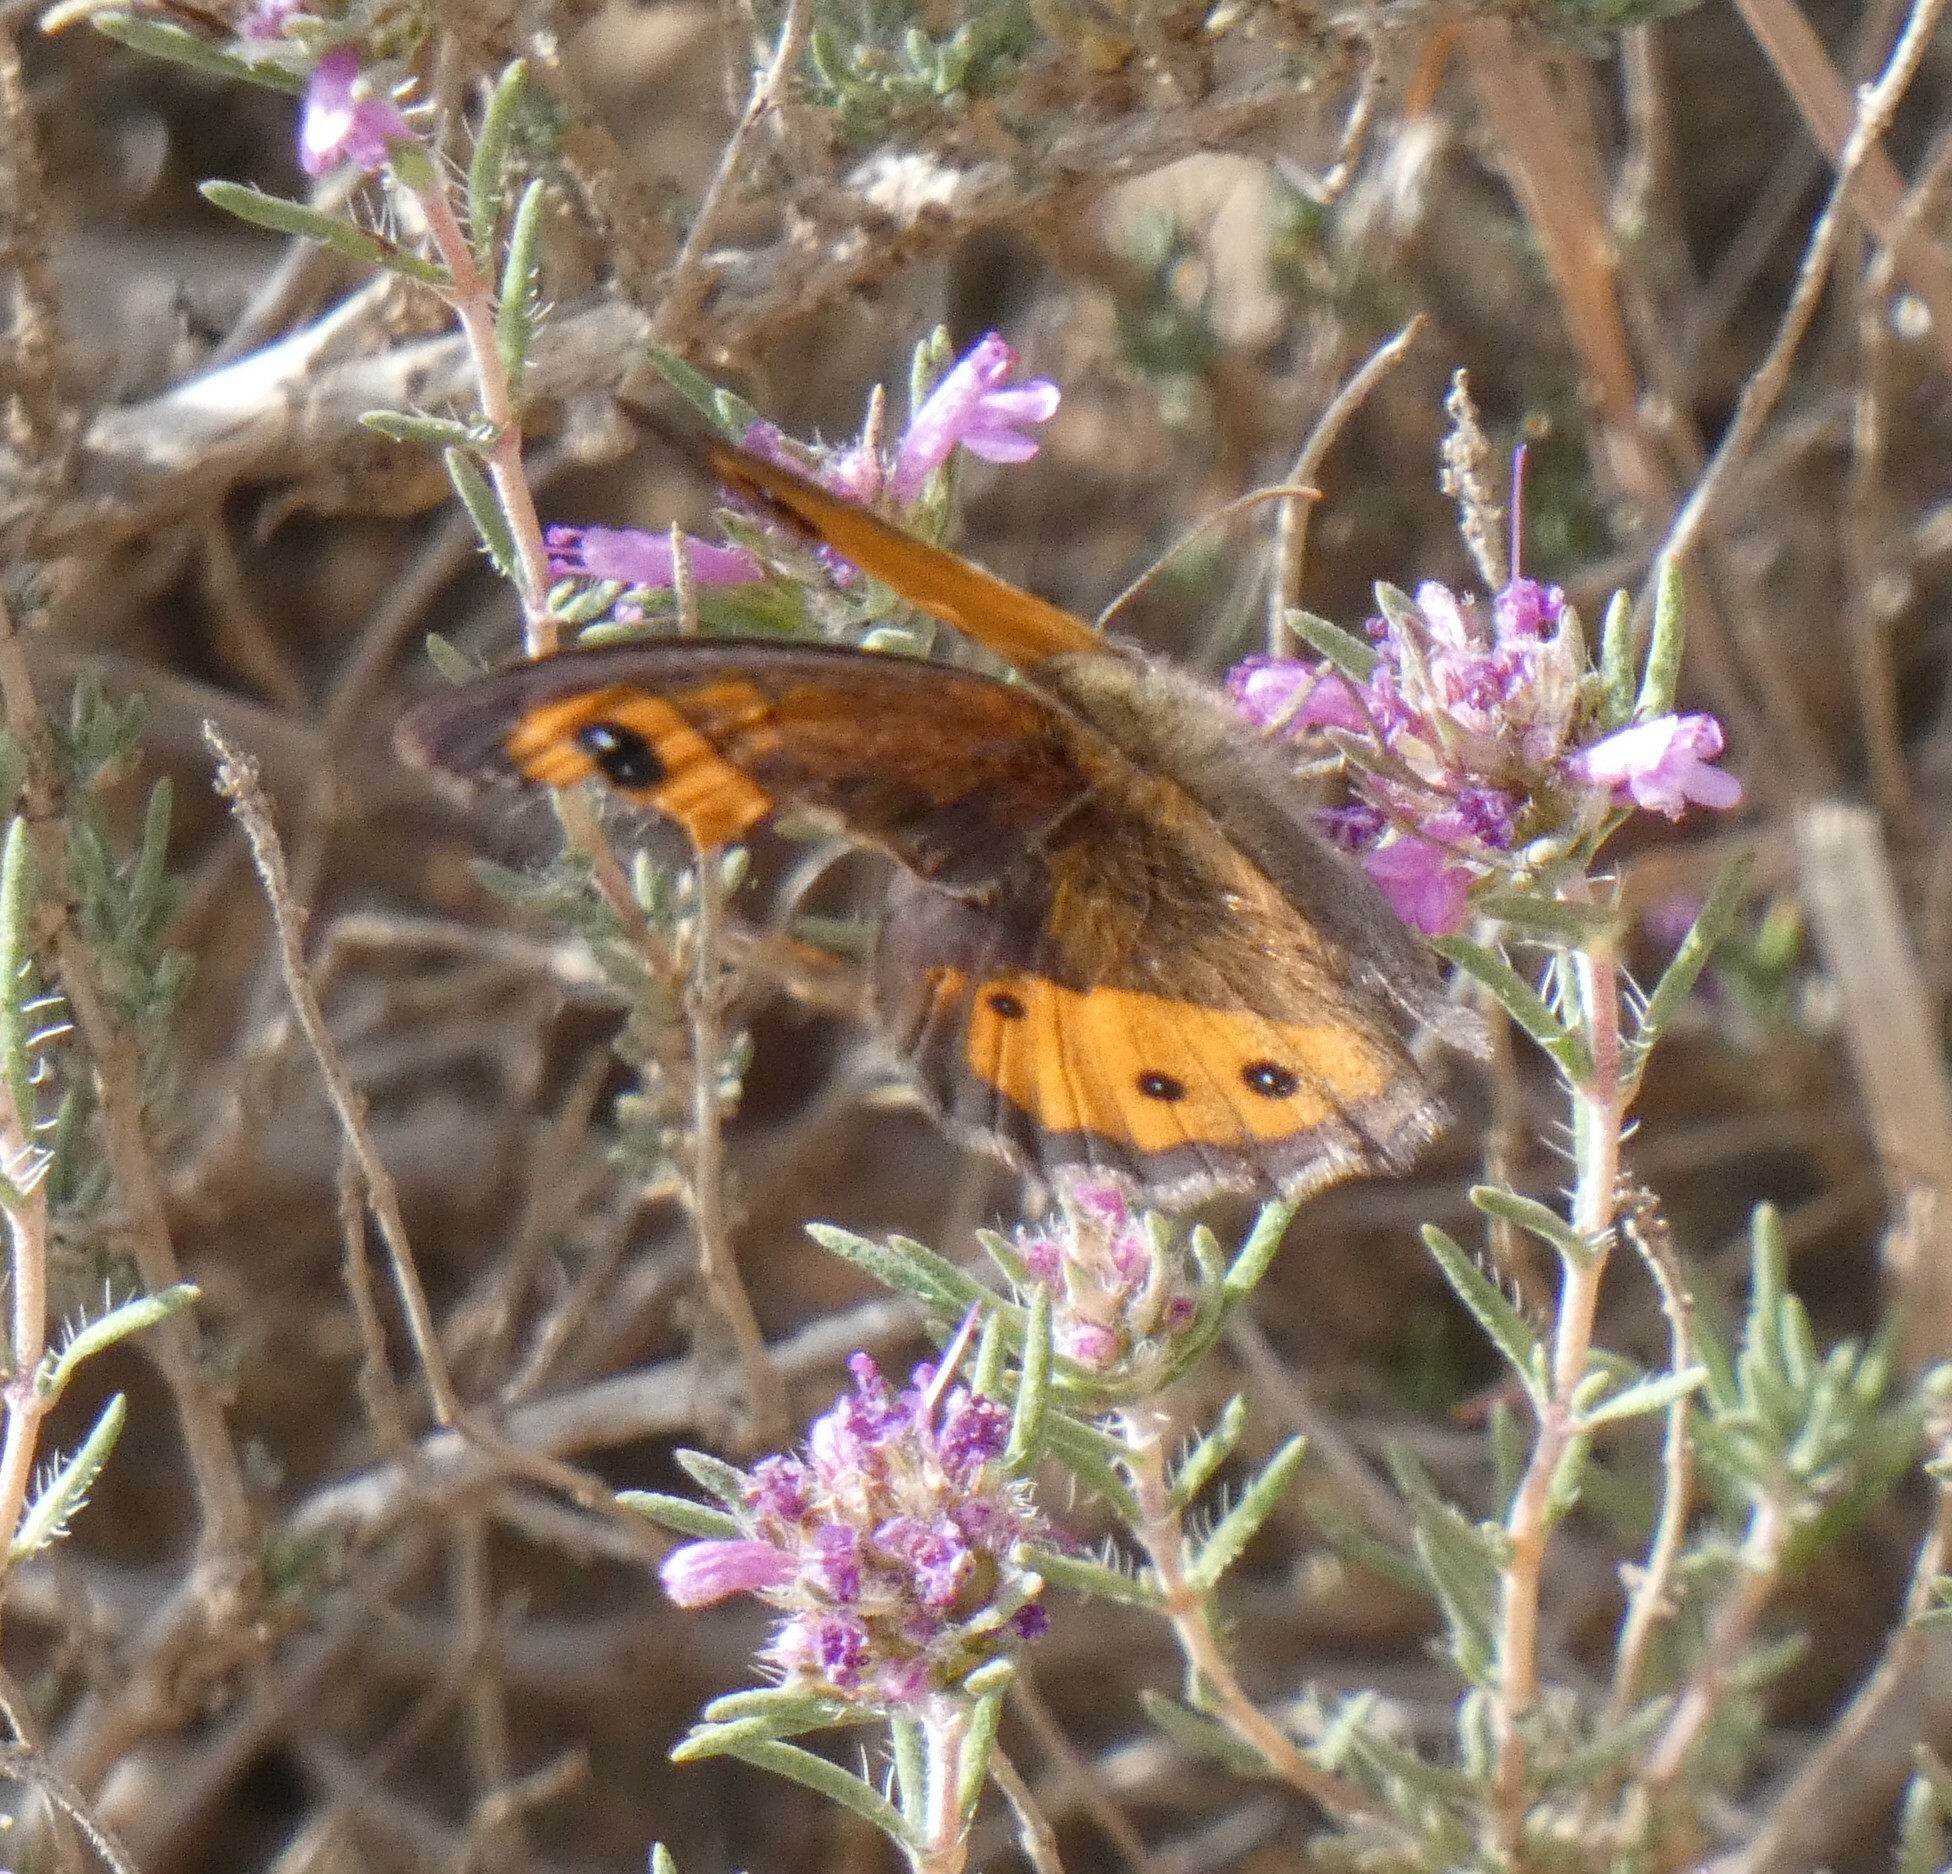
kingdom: Animalia
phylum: Arthropoda
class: Insecta
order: Lepidoptera
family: Nymphalidae
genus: Pyronia
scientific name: Pyronia bathseba
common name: Spanish gatekeeper
